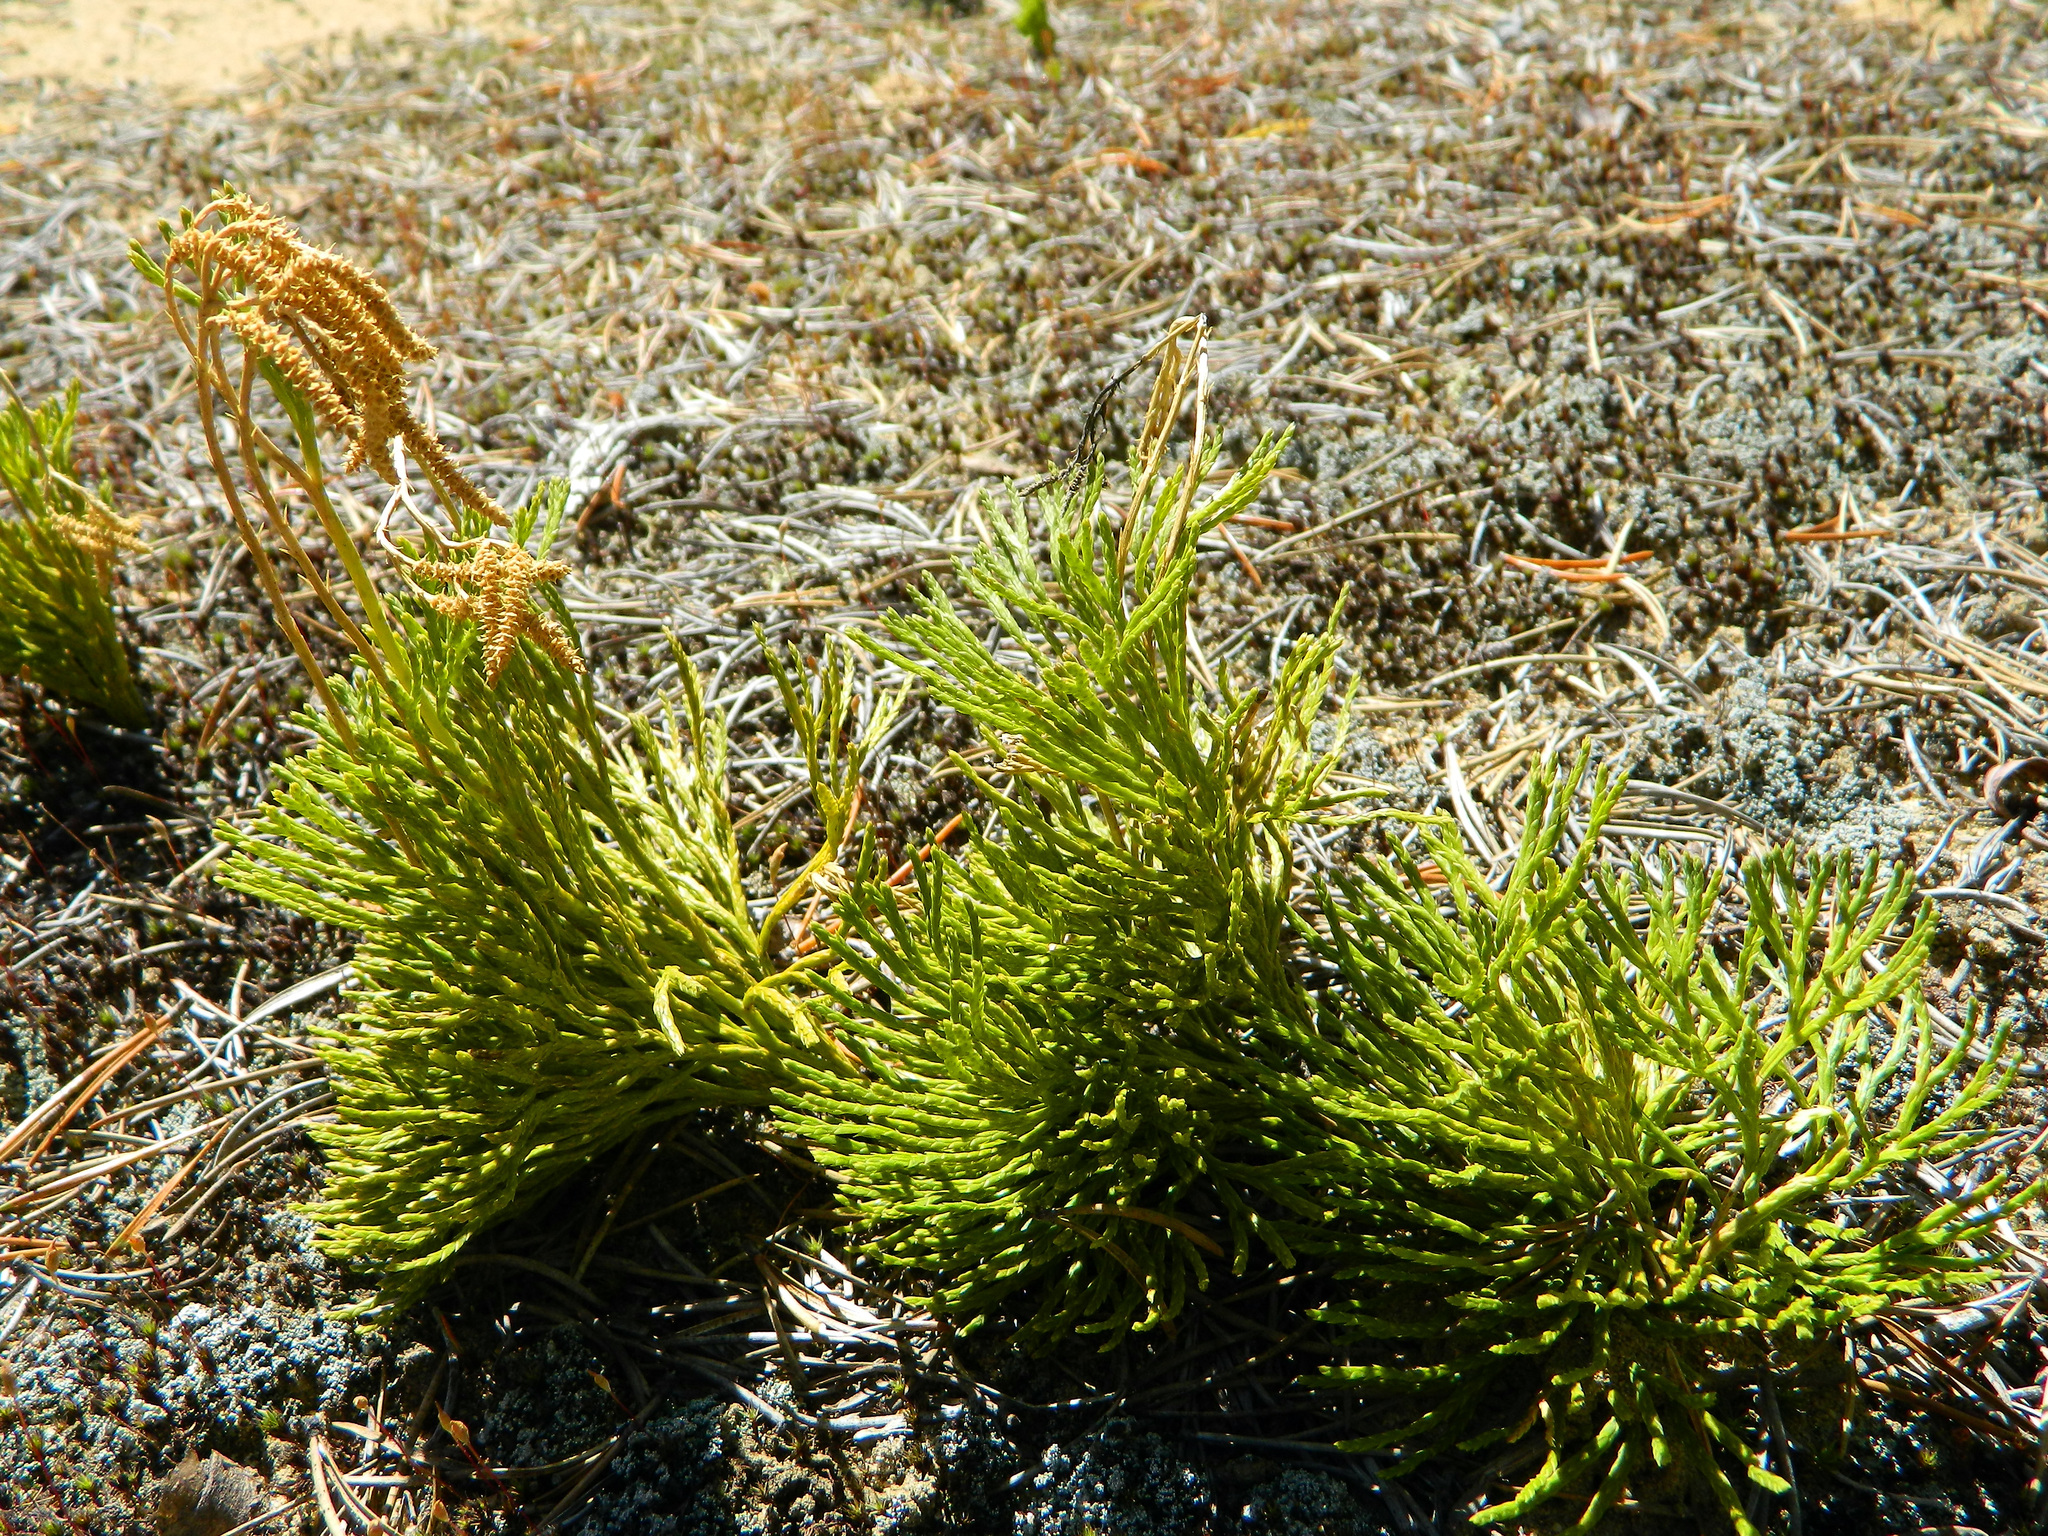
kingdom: Plantae
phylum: Tracheophyta
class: Lycopodiopsida
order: Lycopodiales
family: Lycopodiaceae
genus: Diphasiastrum
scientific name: Diphasiastrum tristachyum
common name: Blue ground-cedar
